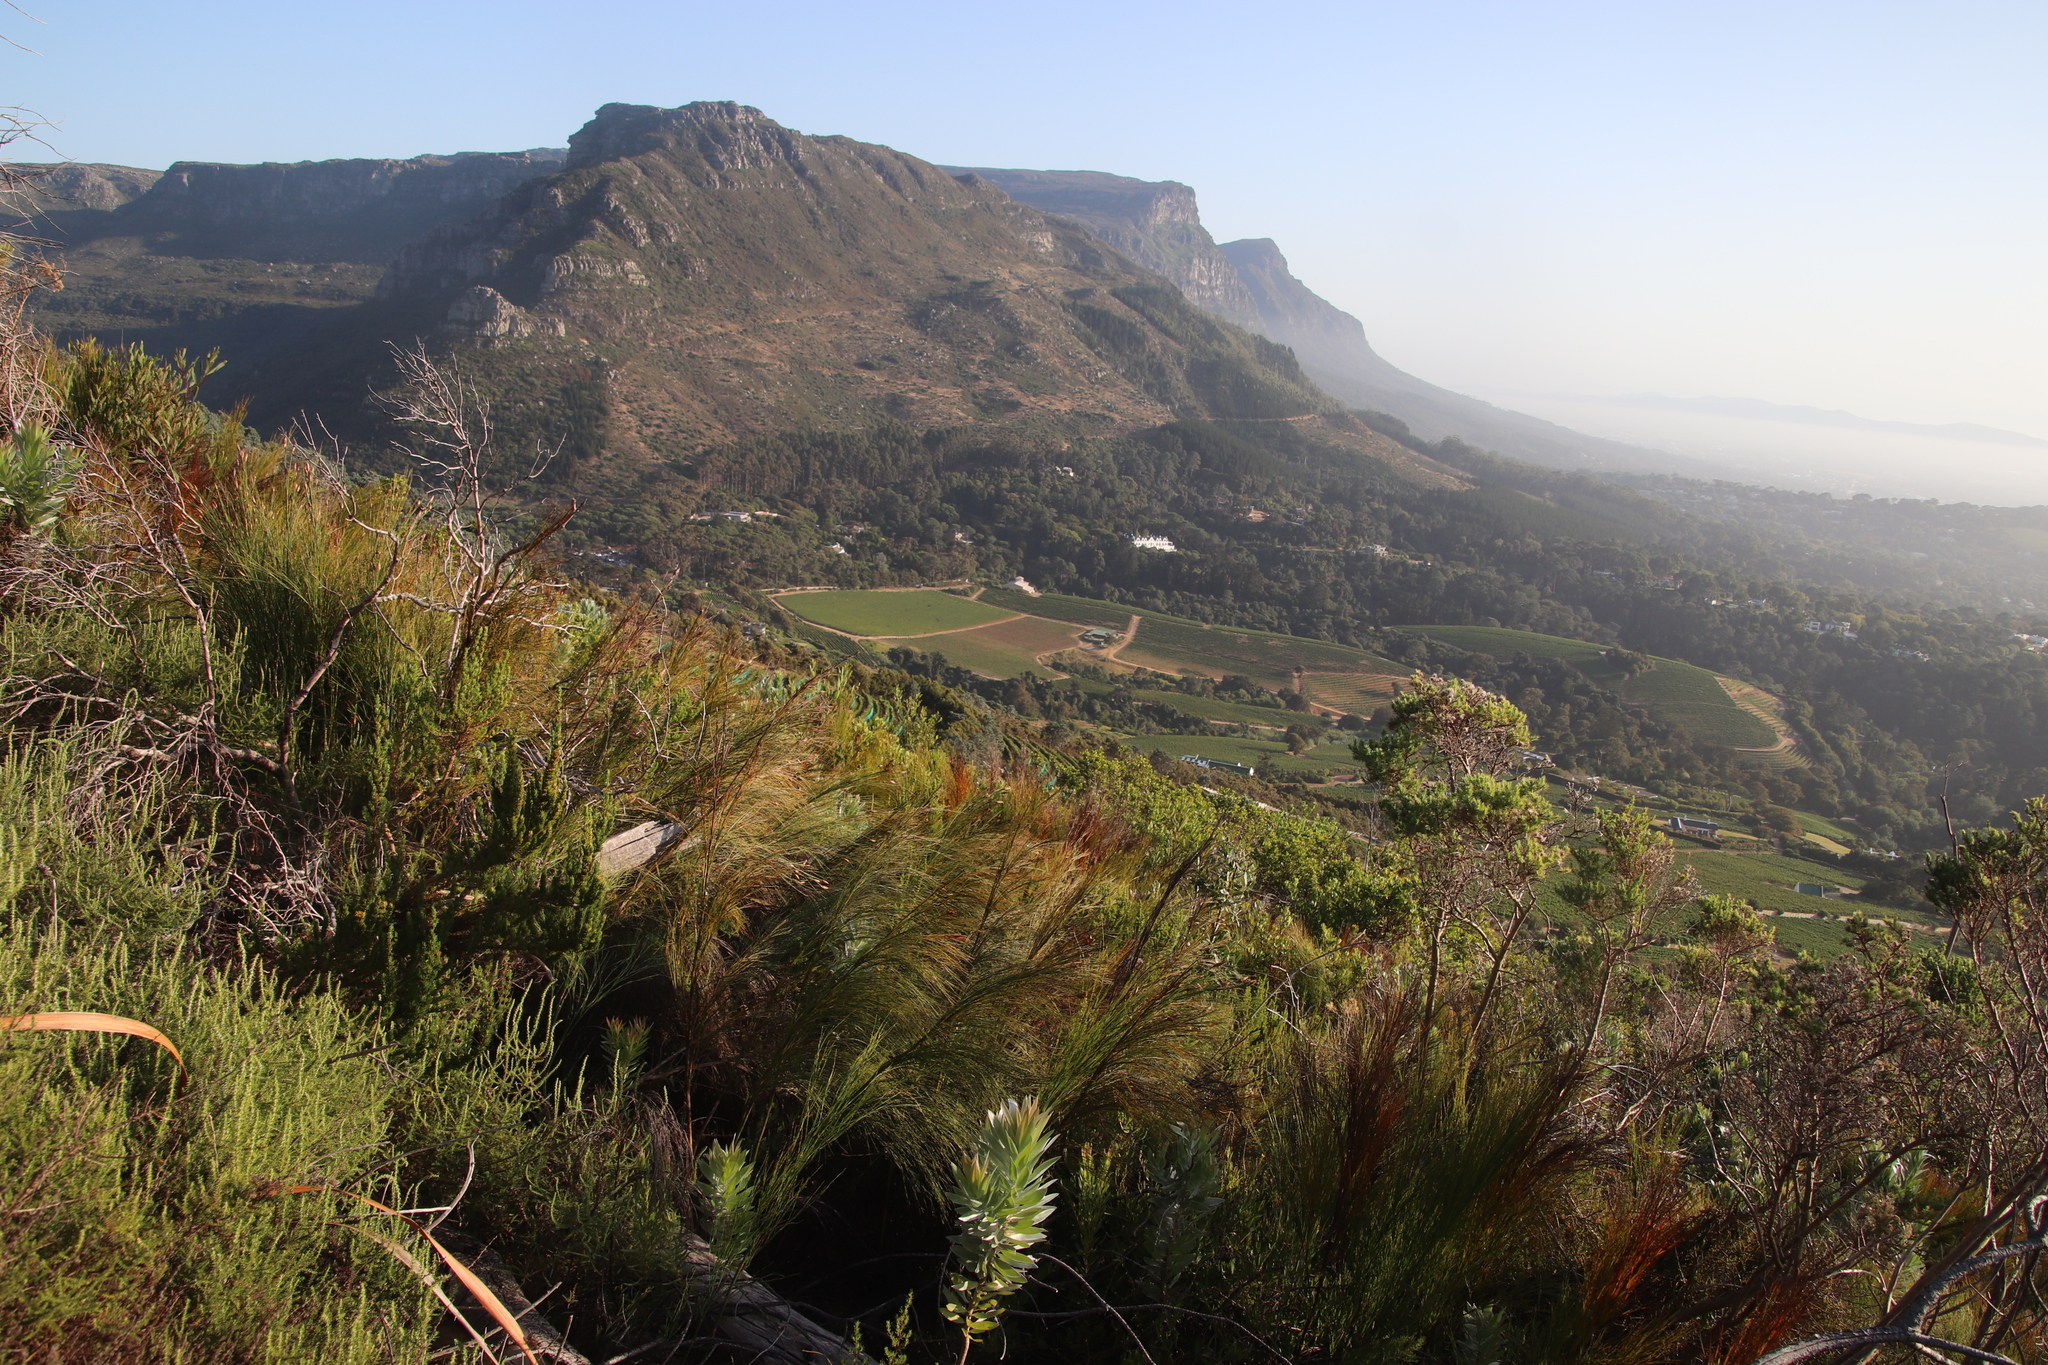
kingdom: Plantae
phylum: Tracheophyta
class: Liliopsida
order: Poales
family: Restionaceae
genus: Cannomois
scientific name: Cannomois virgata
